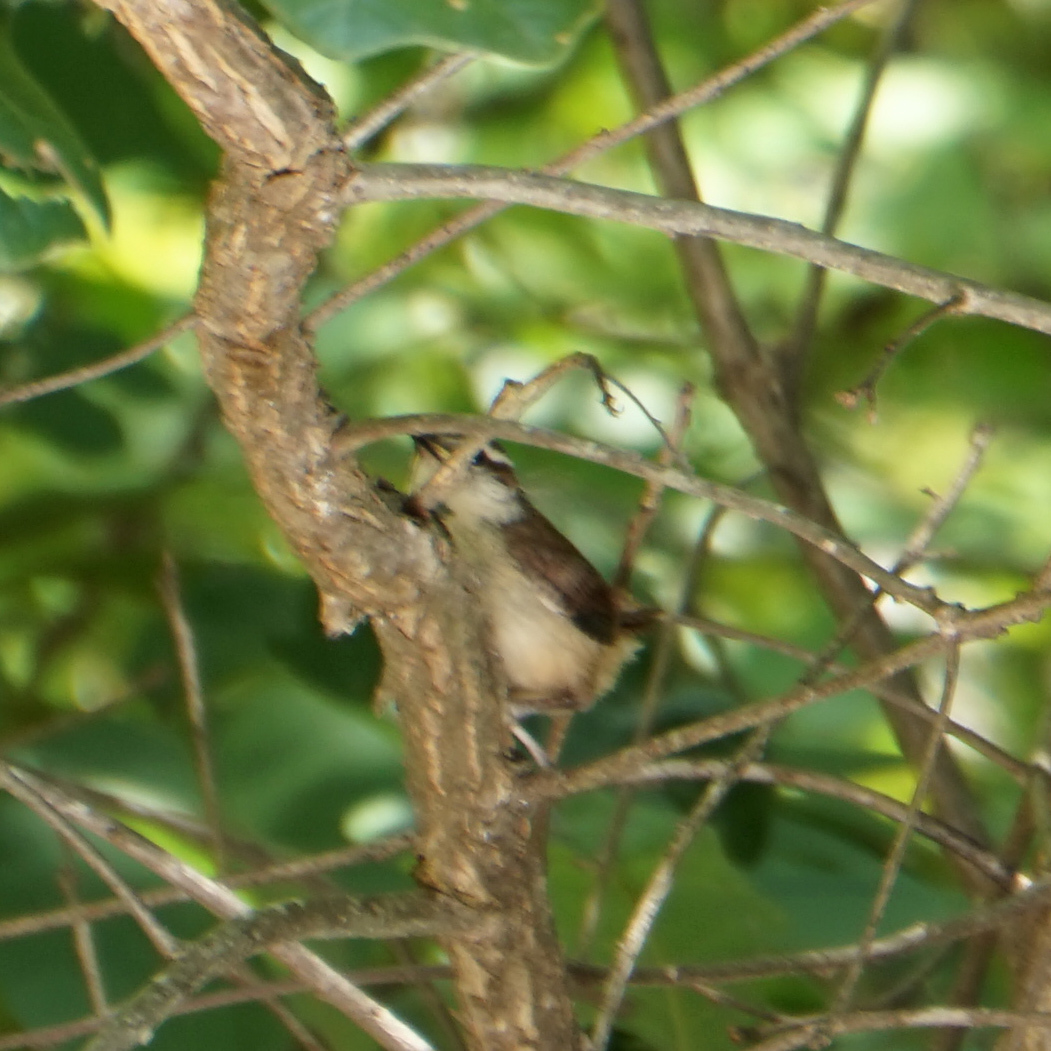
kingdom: Animalia
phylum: Chordata
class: Aves
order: Passeriformes
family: Troglodytidae
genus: Thryothorus
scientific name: Thryothorus ludovicianus
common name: Carolina wren
